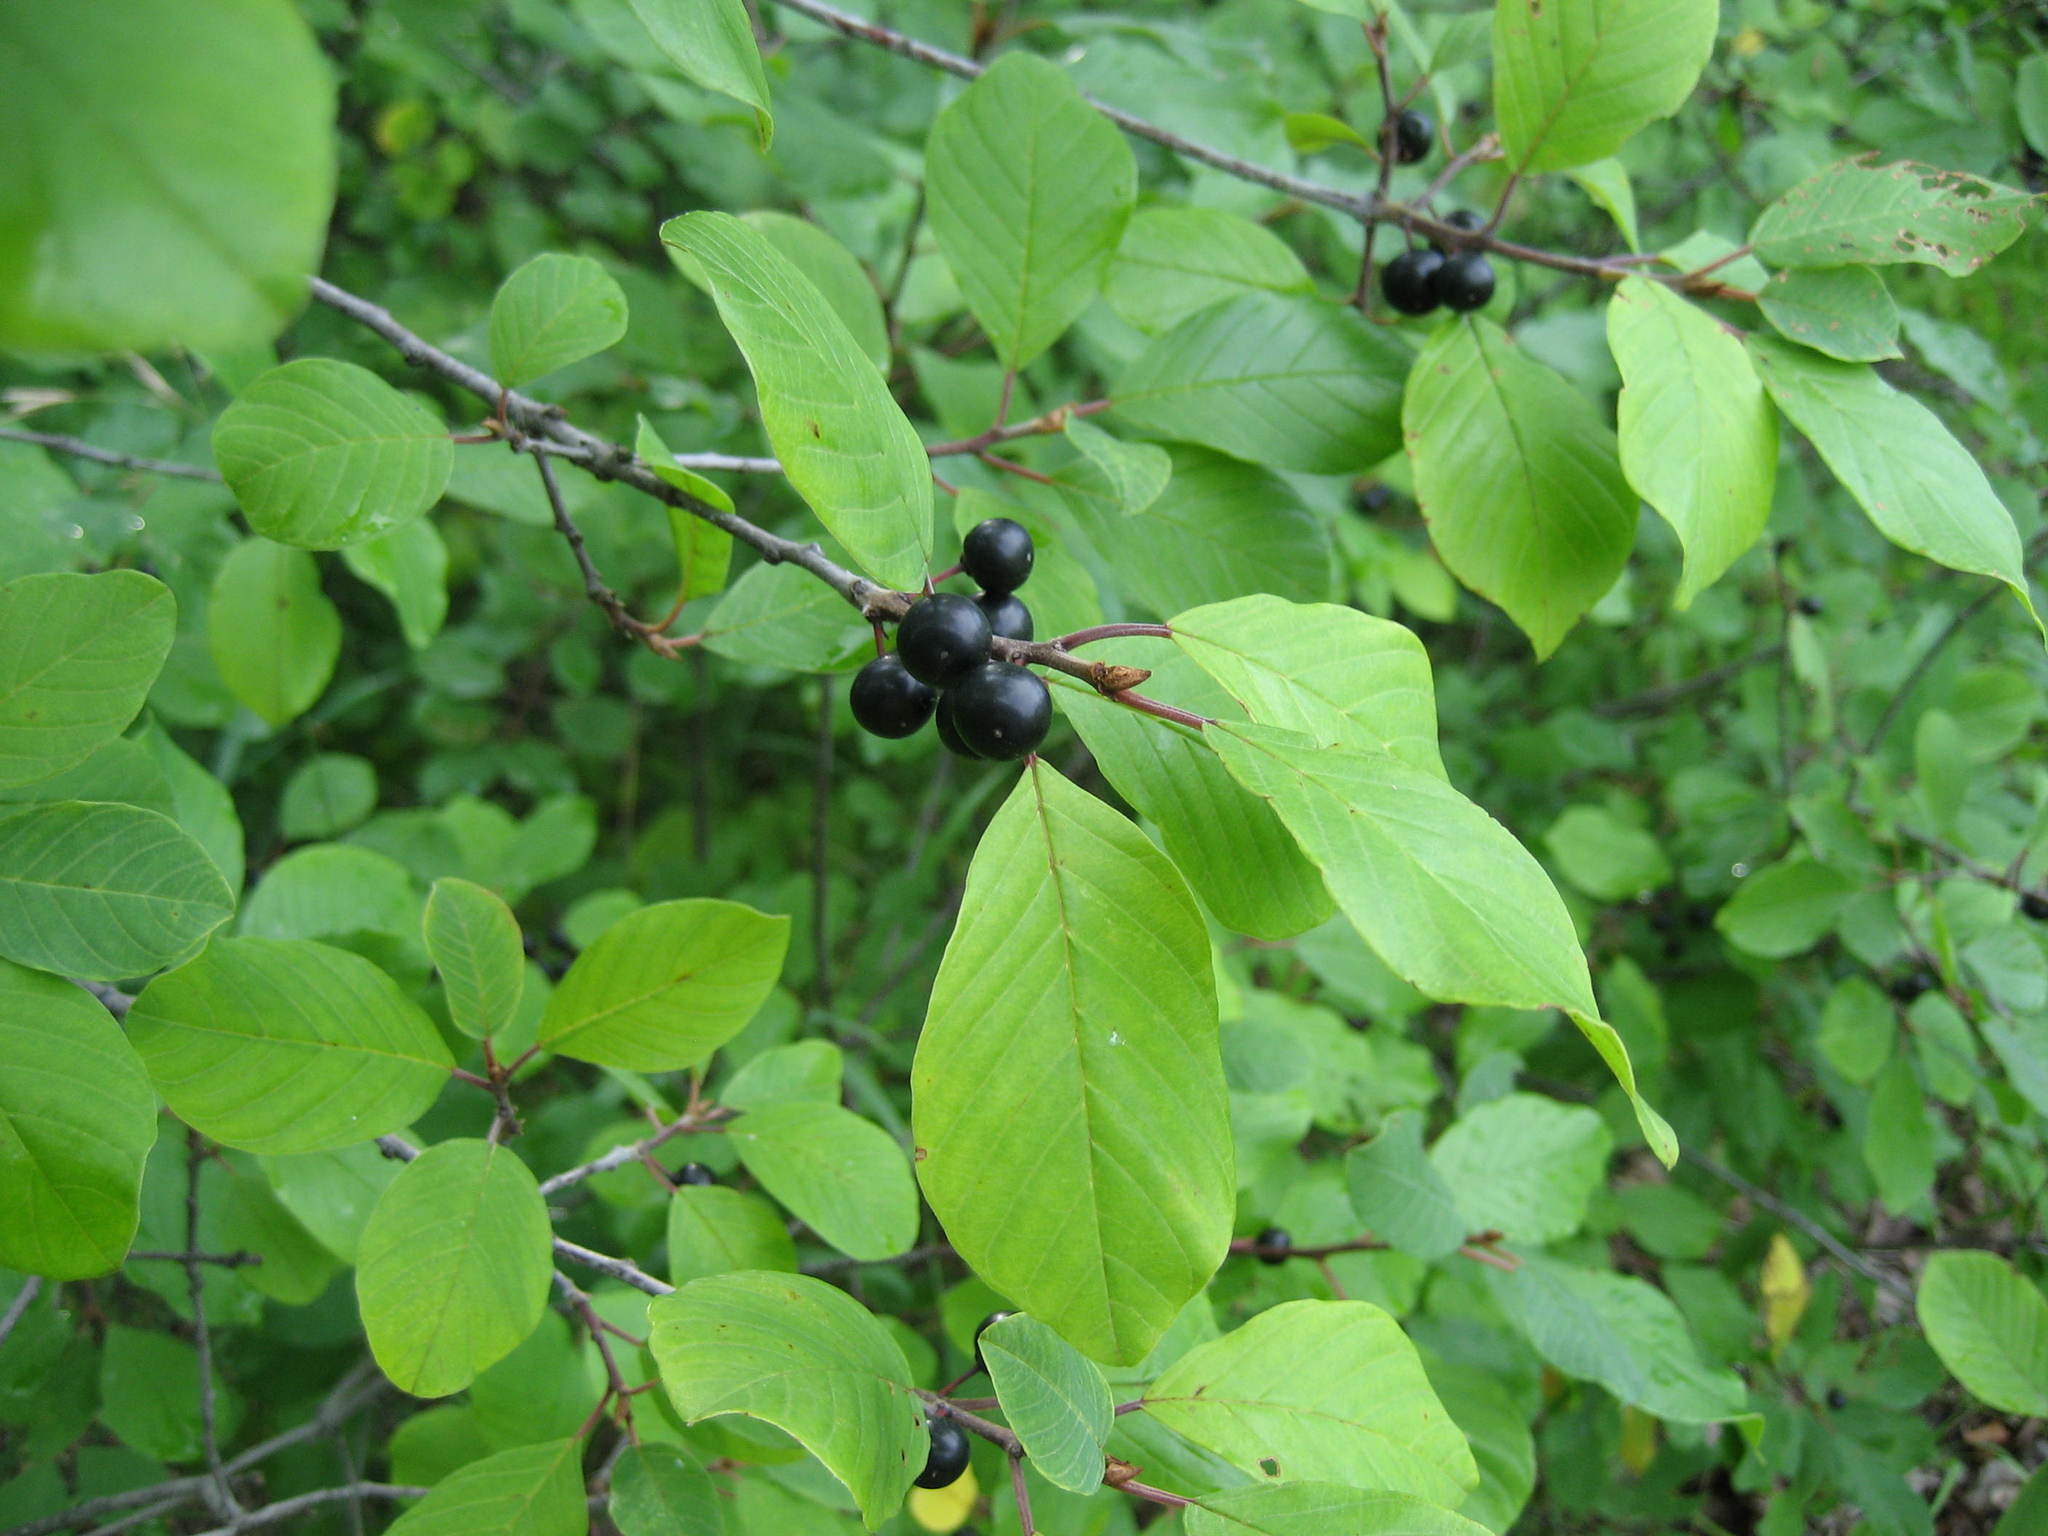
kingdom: Plantae
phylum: Tracheophyta
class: Magnoliopsida
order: Rosales
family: Rhamnaceae
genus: Frangula
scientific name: Frangula alnus
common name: Alder buckthorn
